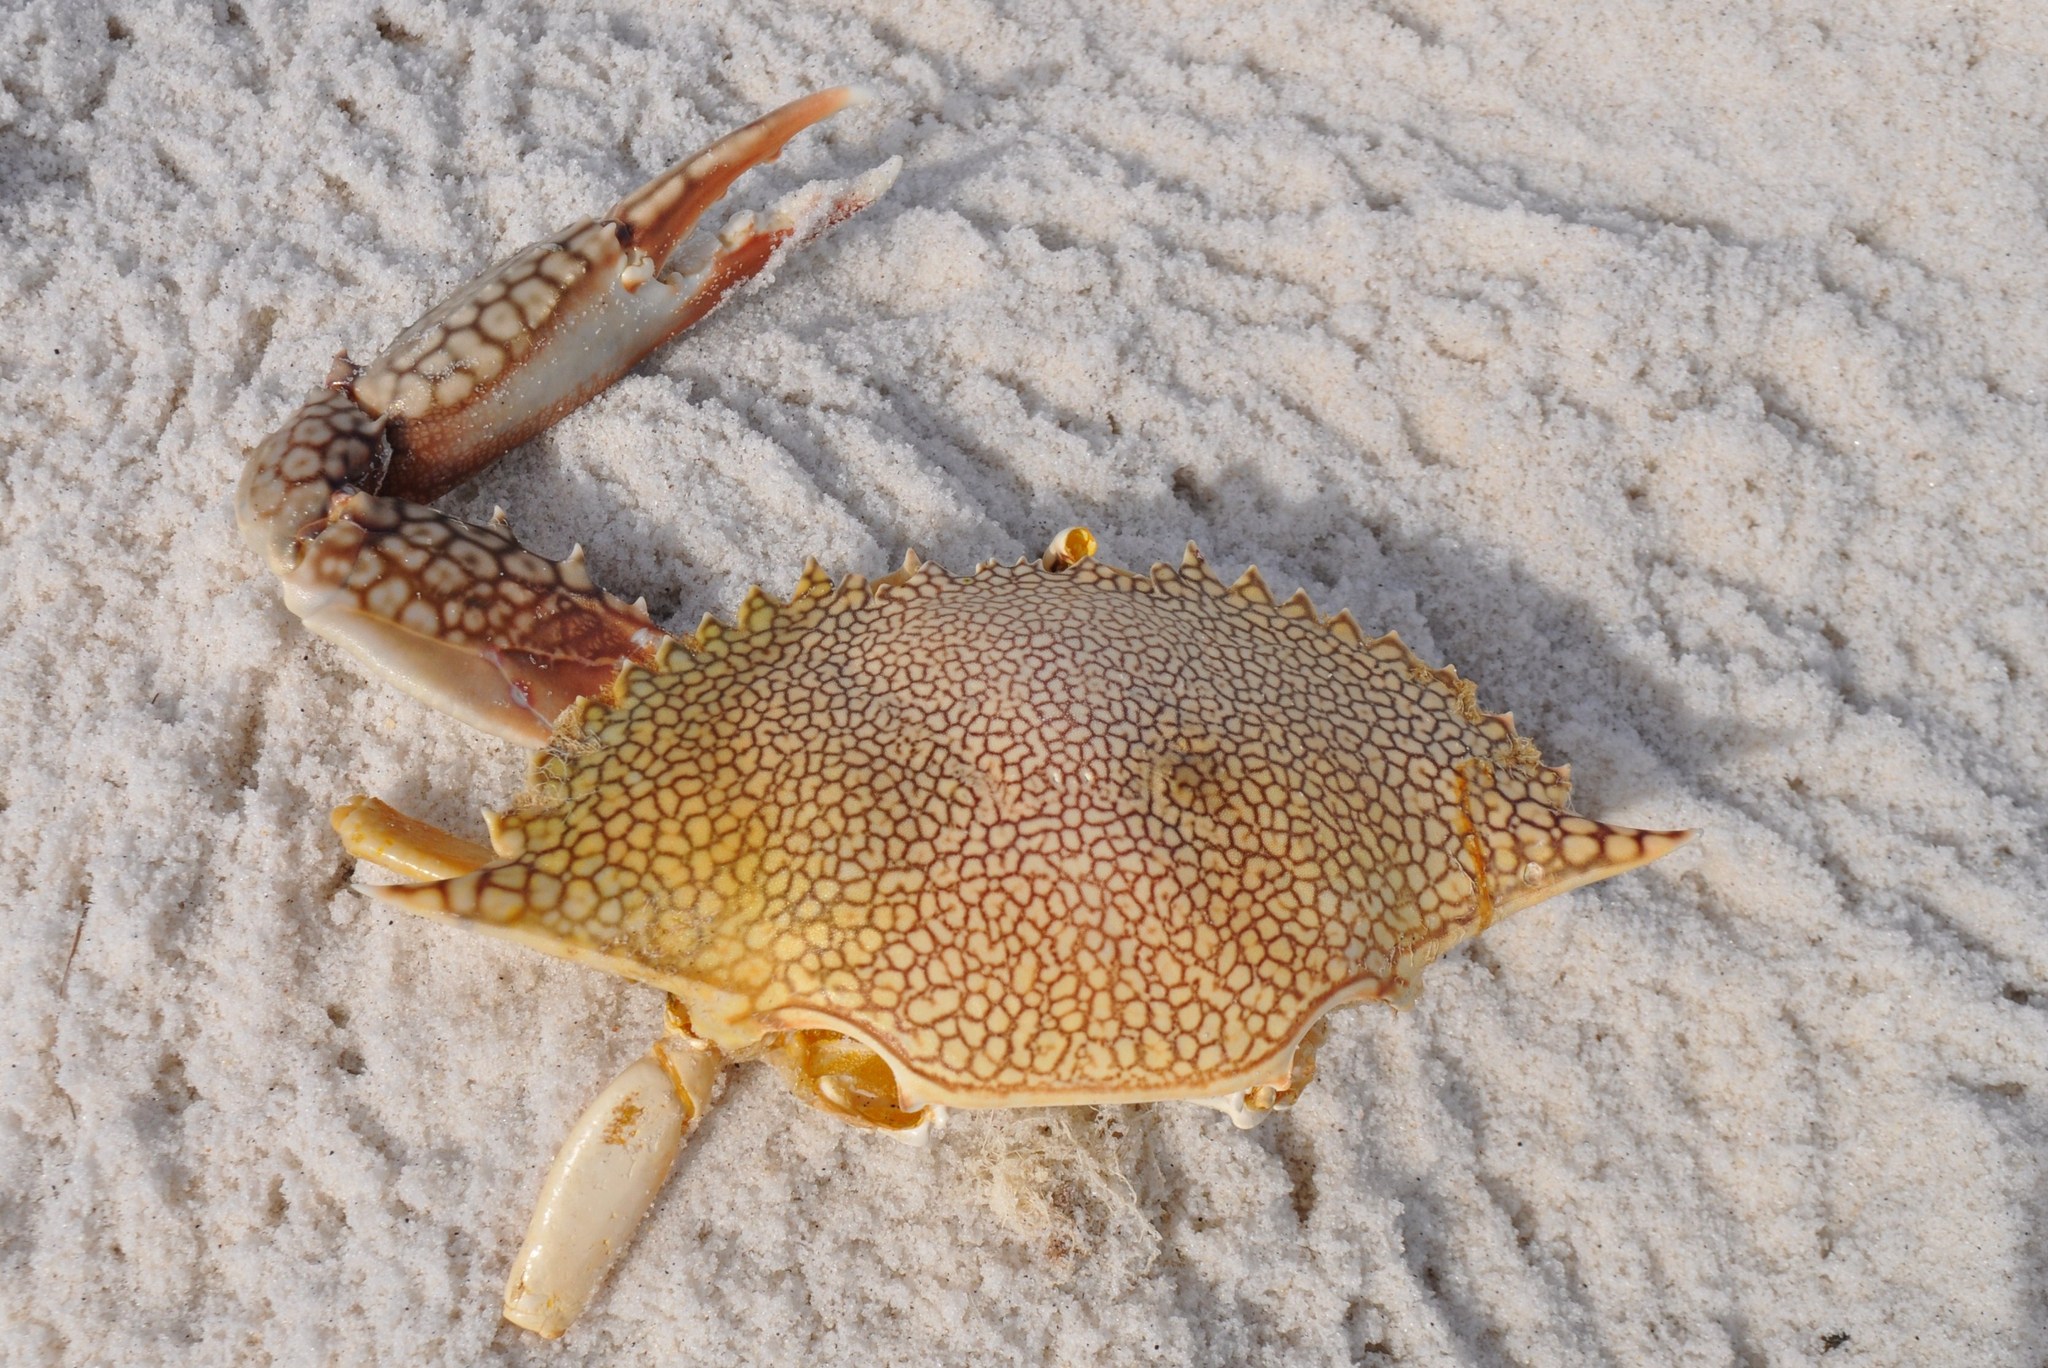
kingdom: Animalia
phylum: Arthropoda
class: Malacostraca
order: Decapoda
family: Portunidae
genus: Arenaeus
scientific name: Arenaeus cribrarius
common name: Speckled crab
